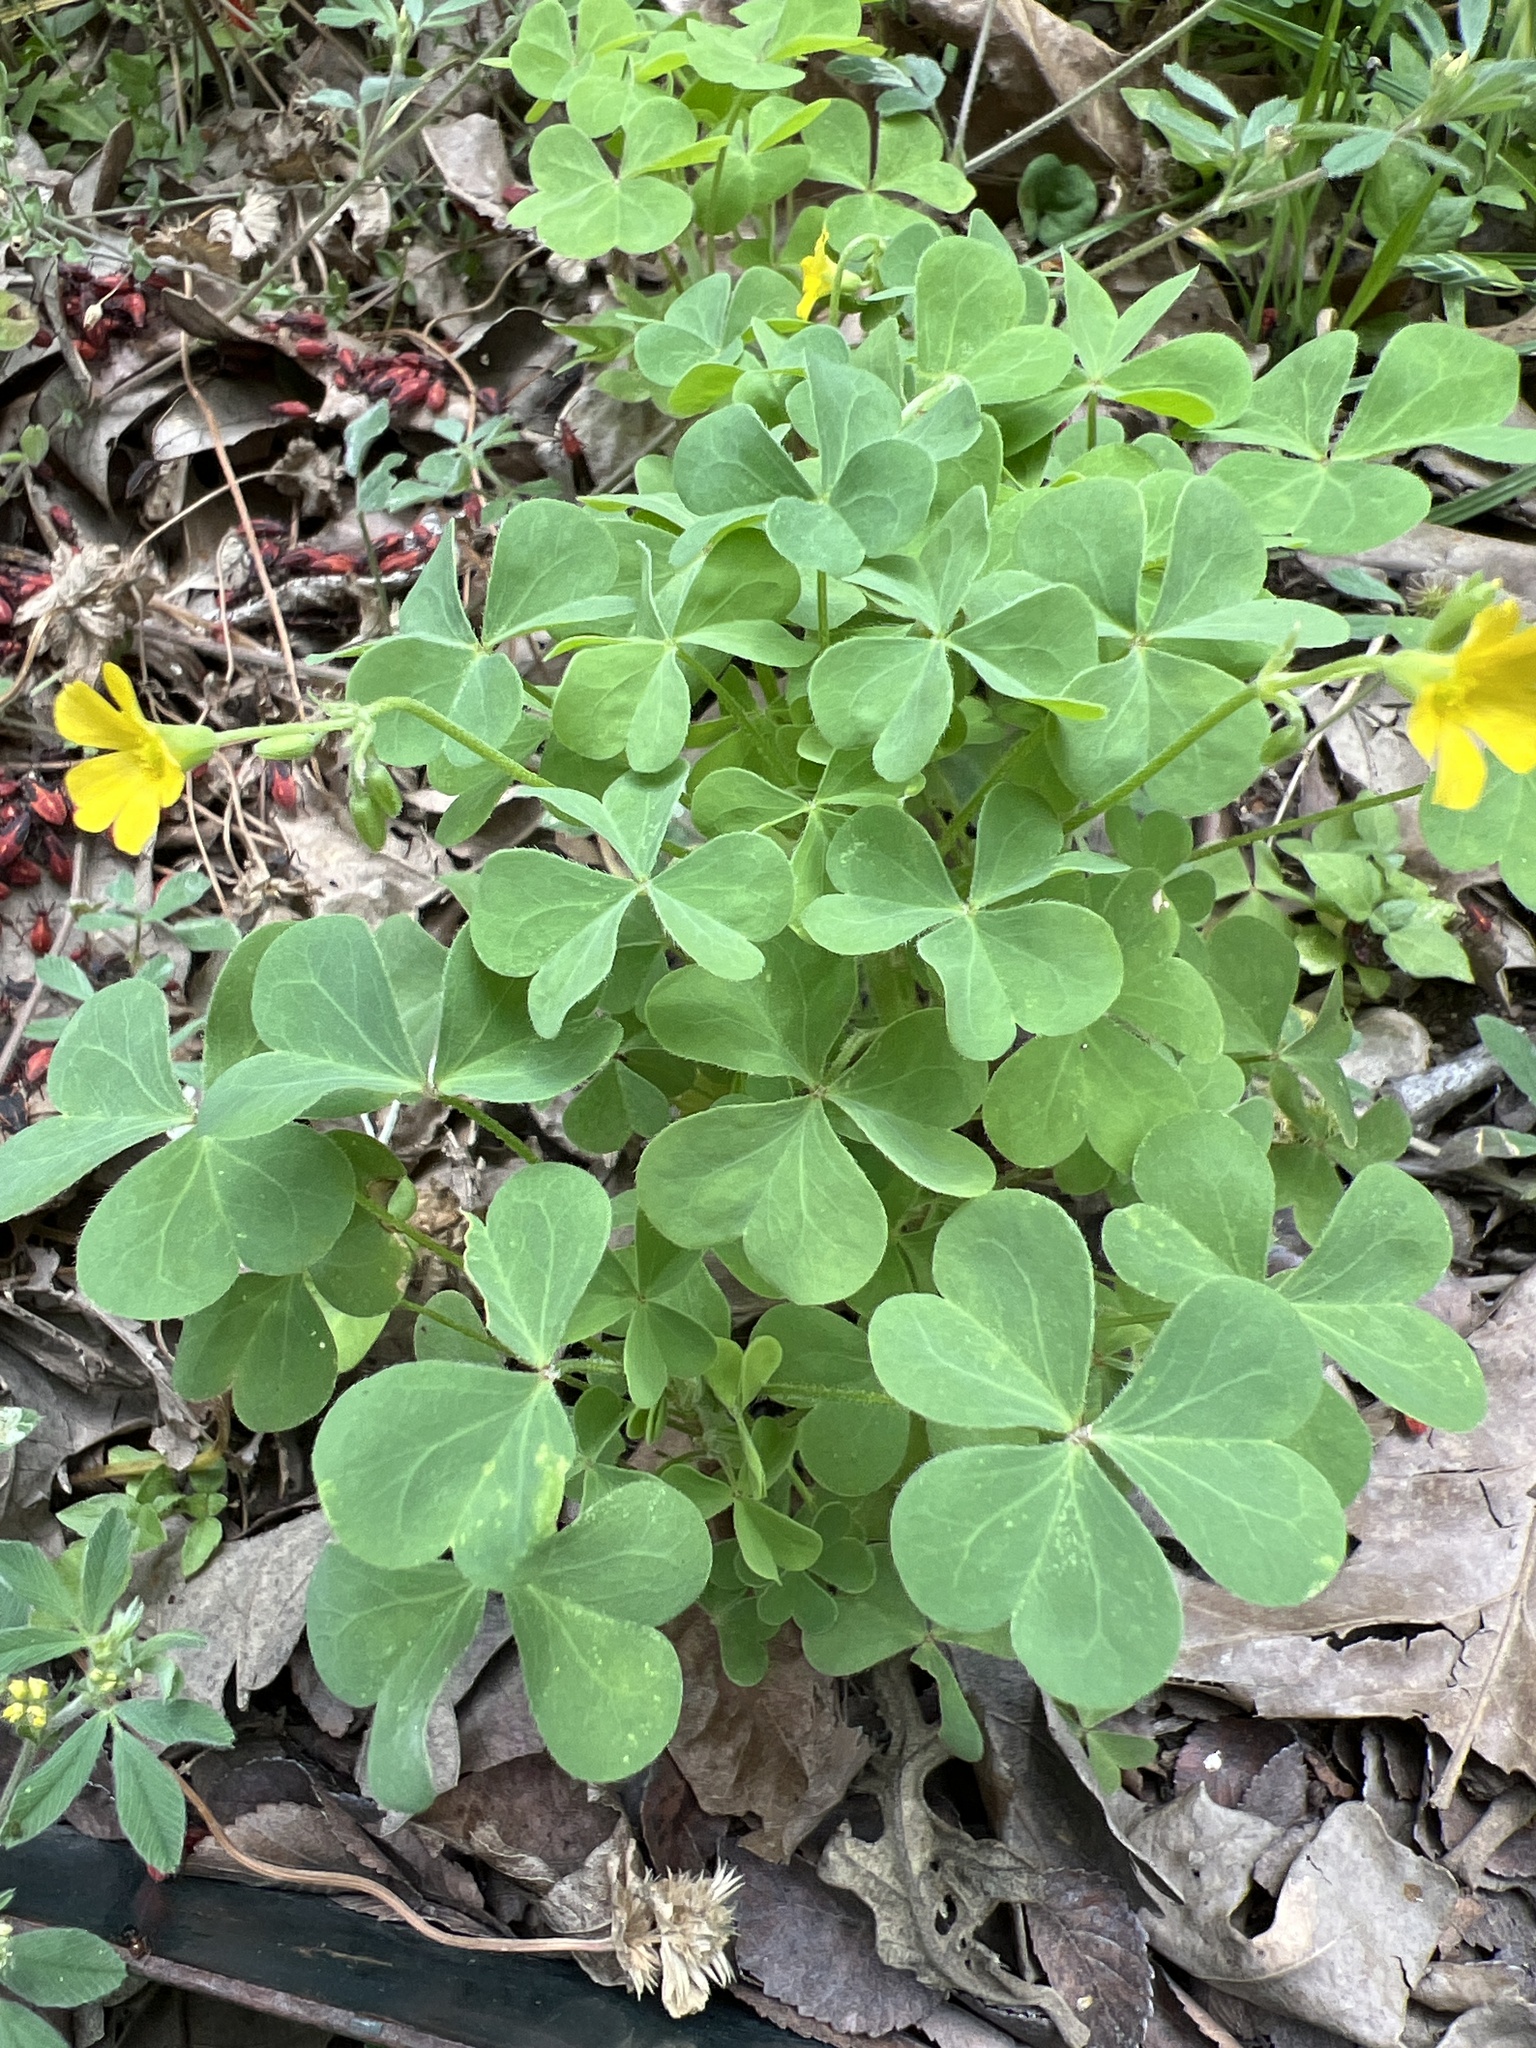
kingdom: Plantae
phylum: Tracheophyta
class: Magnoliopsida
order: Oxalidales
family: Oxalidaceae
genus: Oxalis
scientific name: Oxalis corniculata
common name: Procumbent yellow-sorrel
